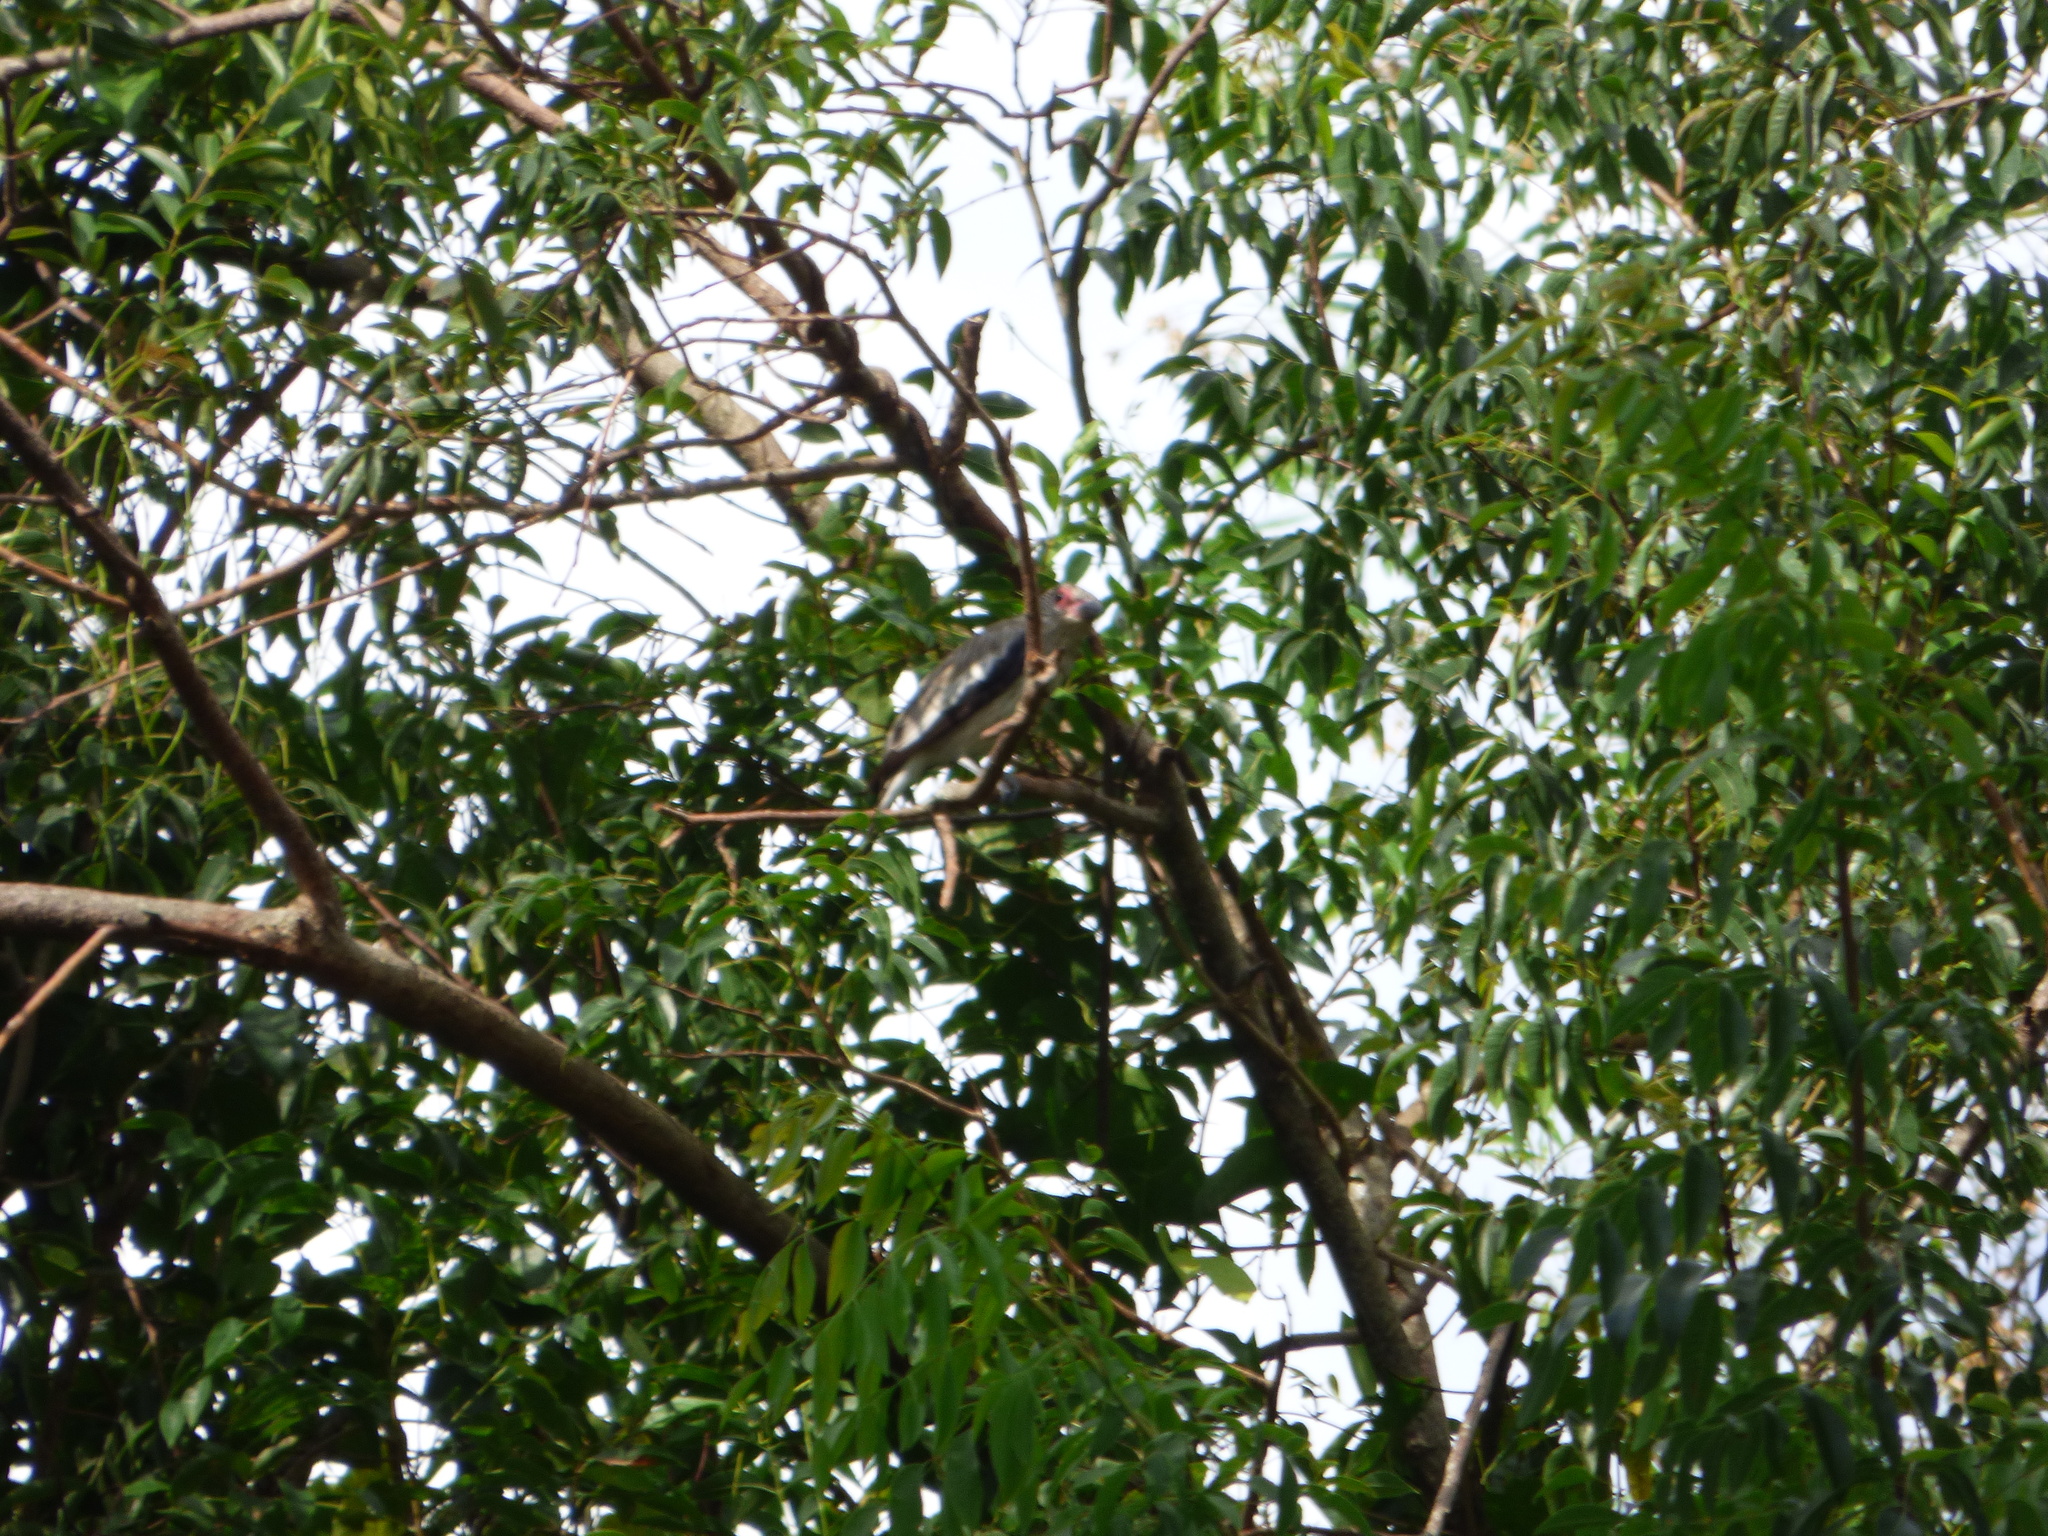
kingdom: Animalia
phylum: Chordata
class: Aves
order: Passeriformes
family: Cotingidae
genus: Tityra
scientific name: Tityra cayana
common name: Black-tailed tityra
